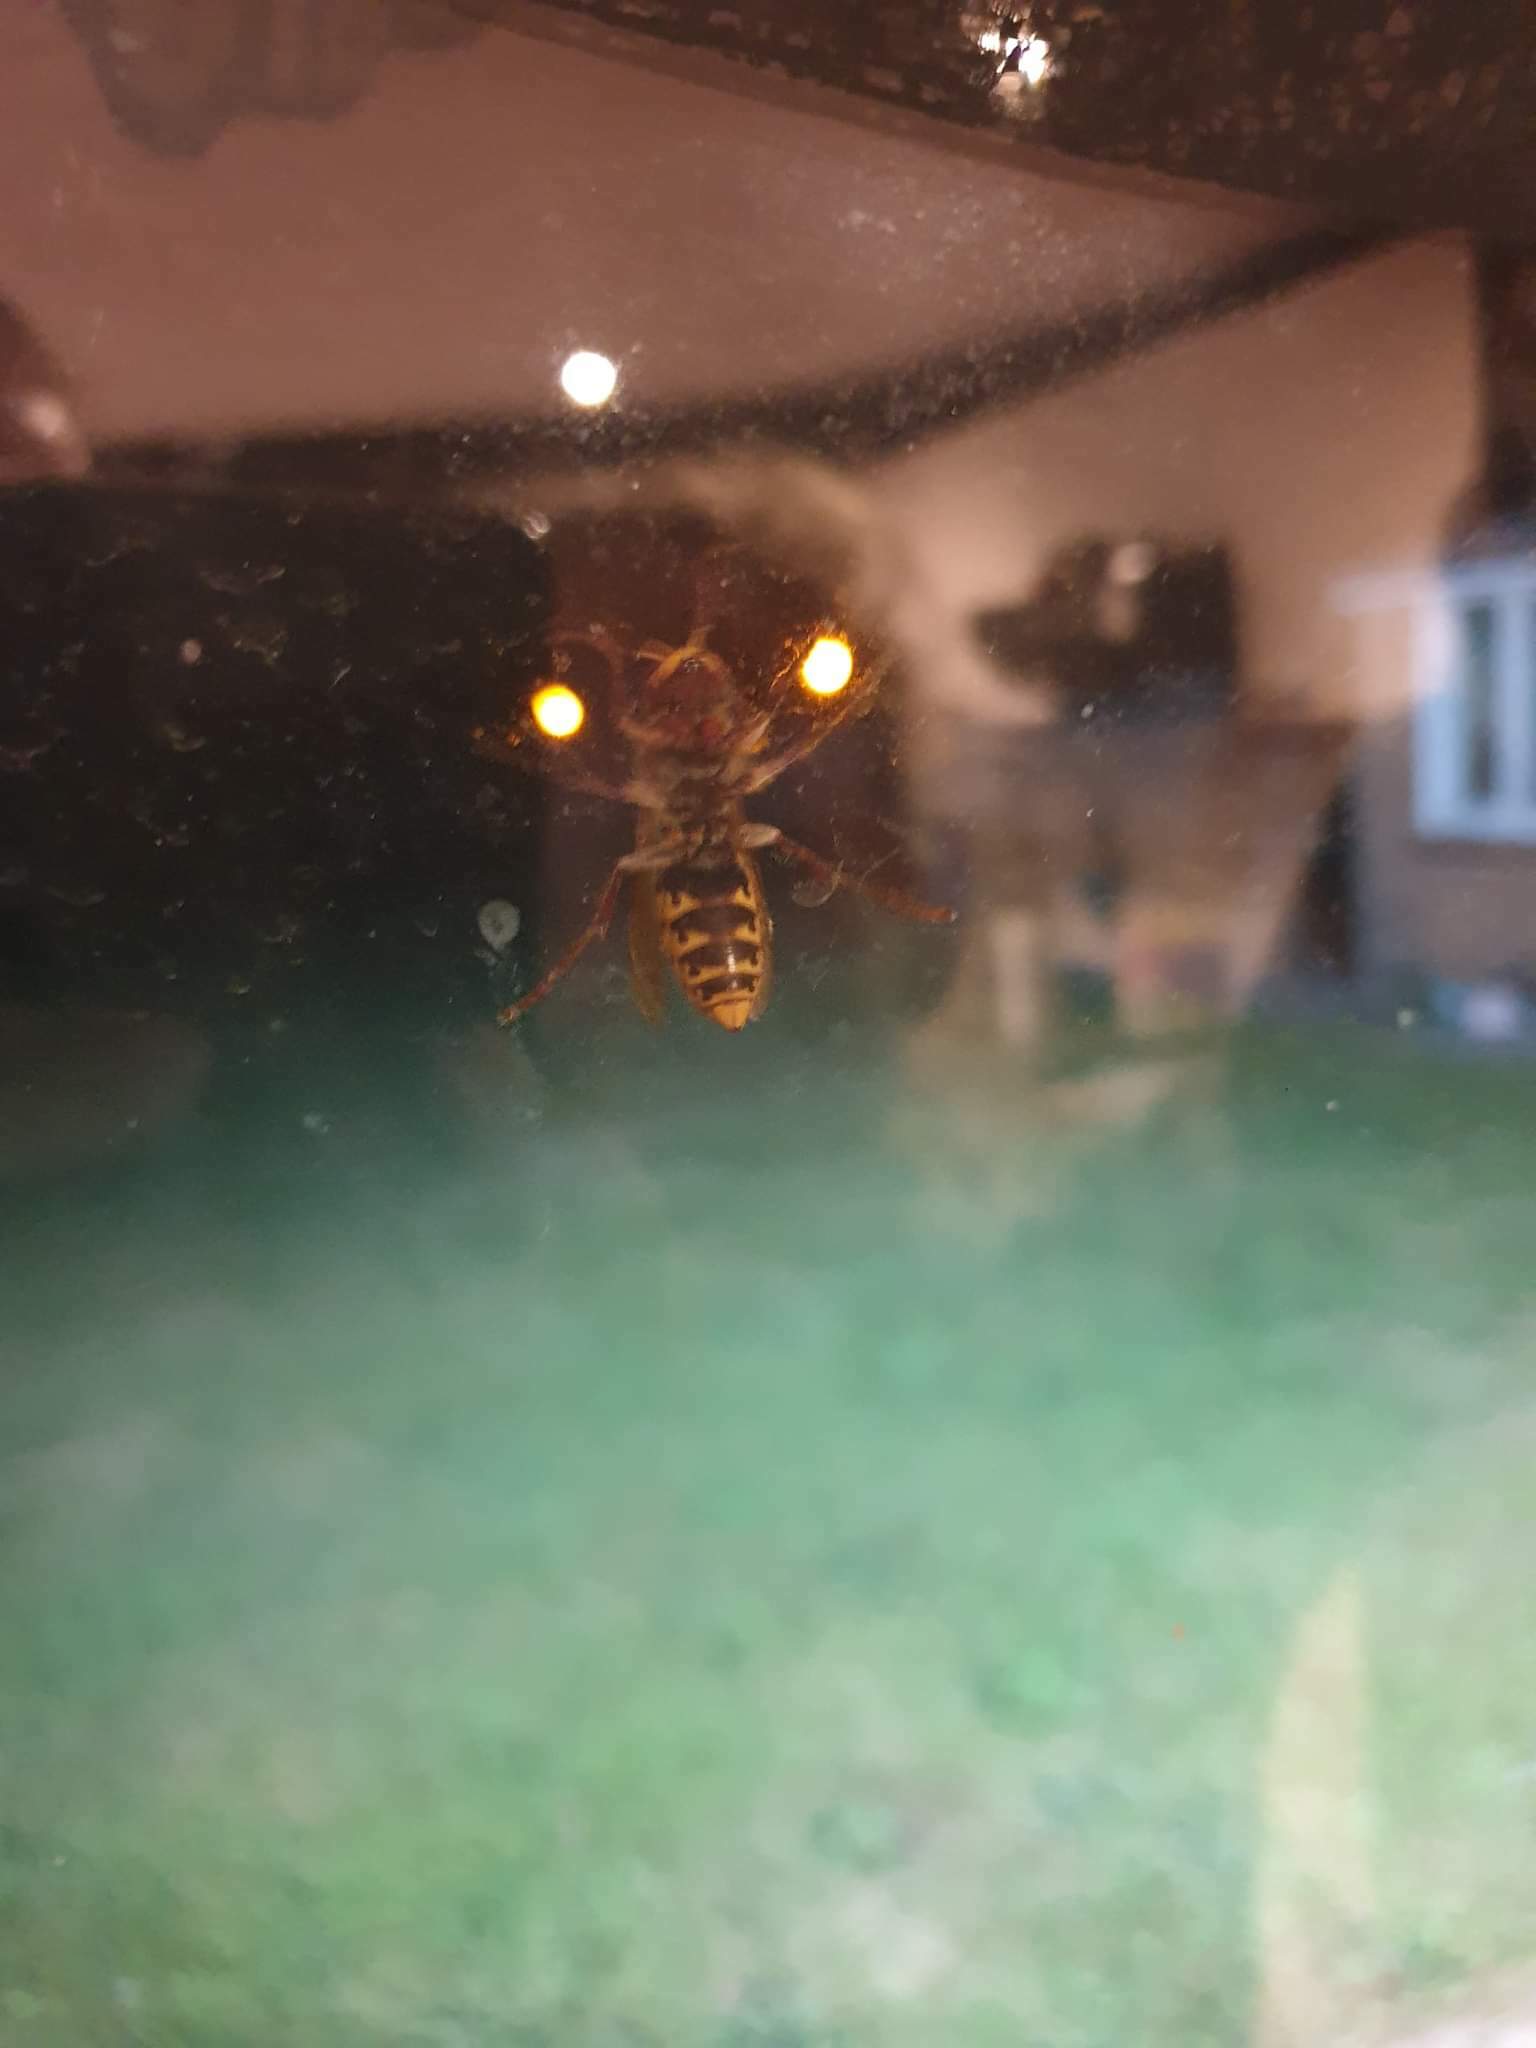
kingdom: Animalia
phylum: Arthropoda
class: Insecta
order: Hymenoptera
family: Vespidae
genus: Vespa
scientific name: Vespa crabro
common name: Hornet
